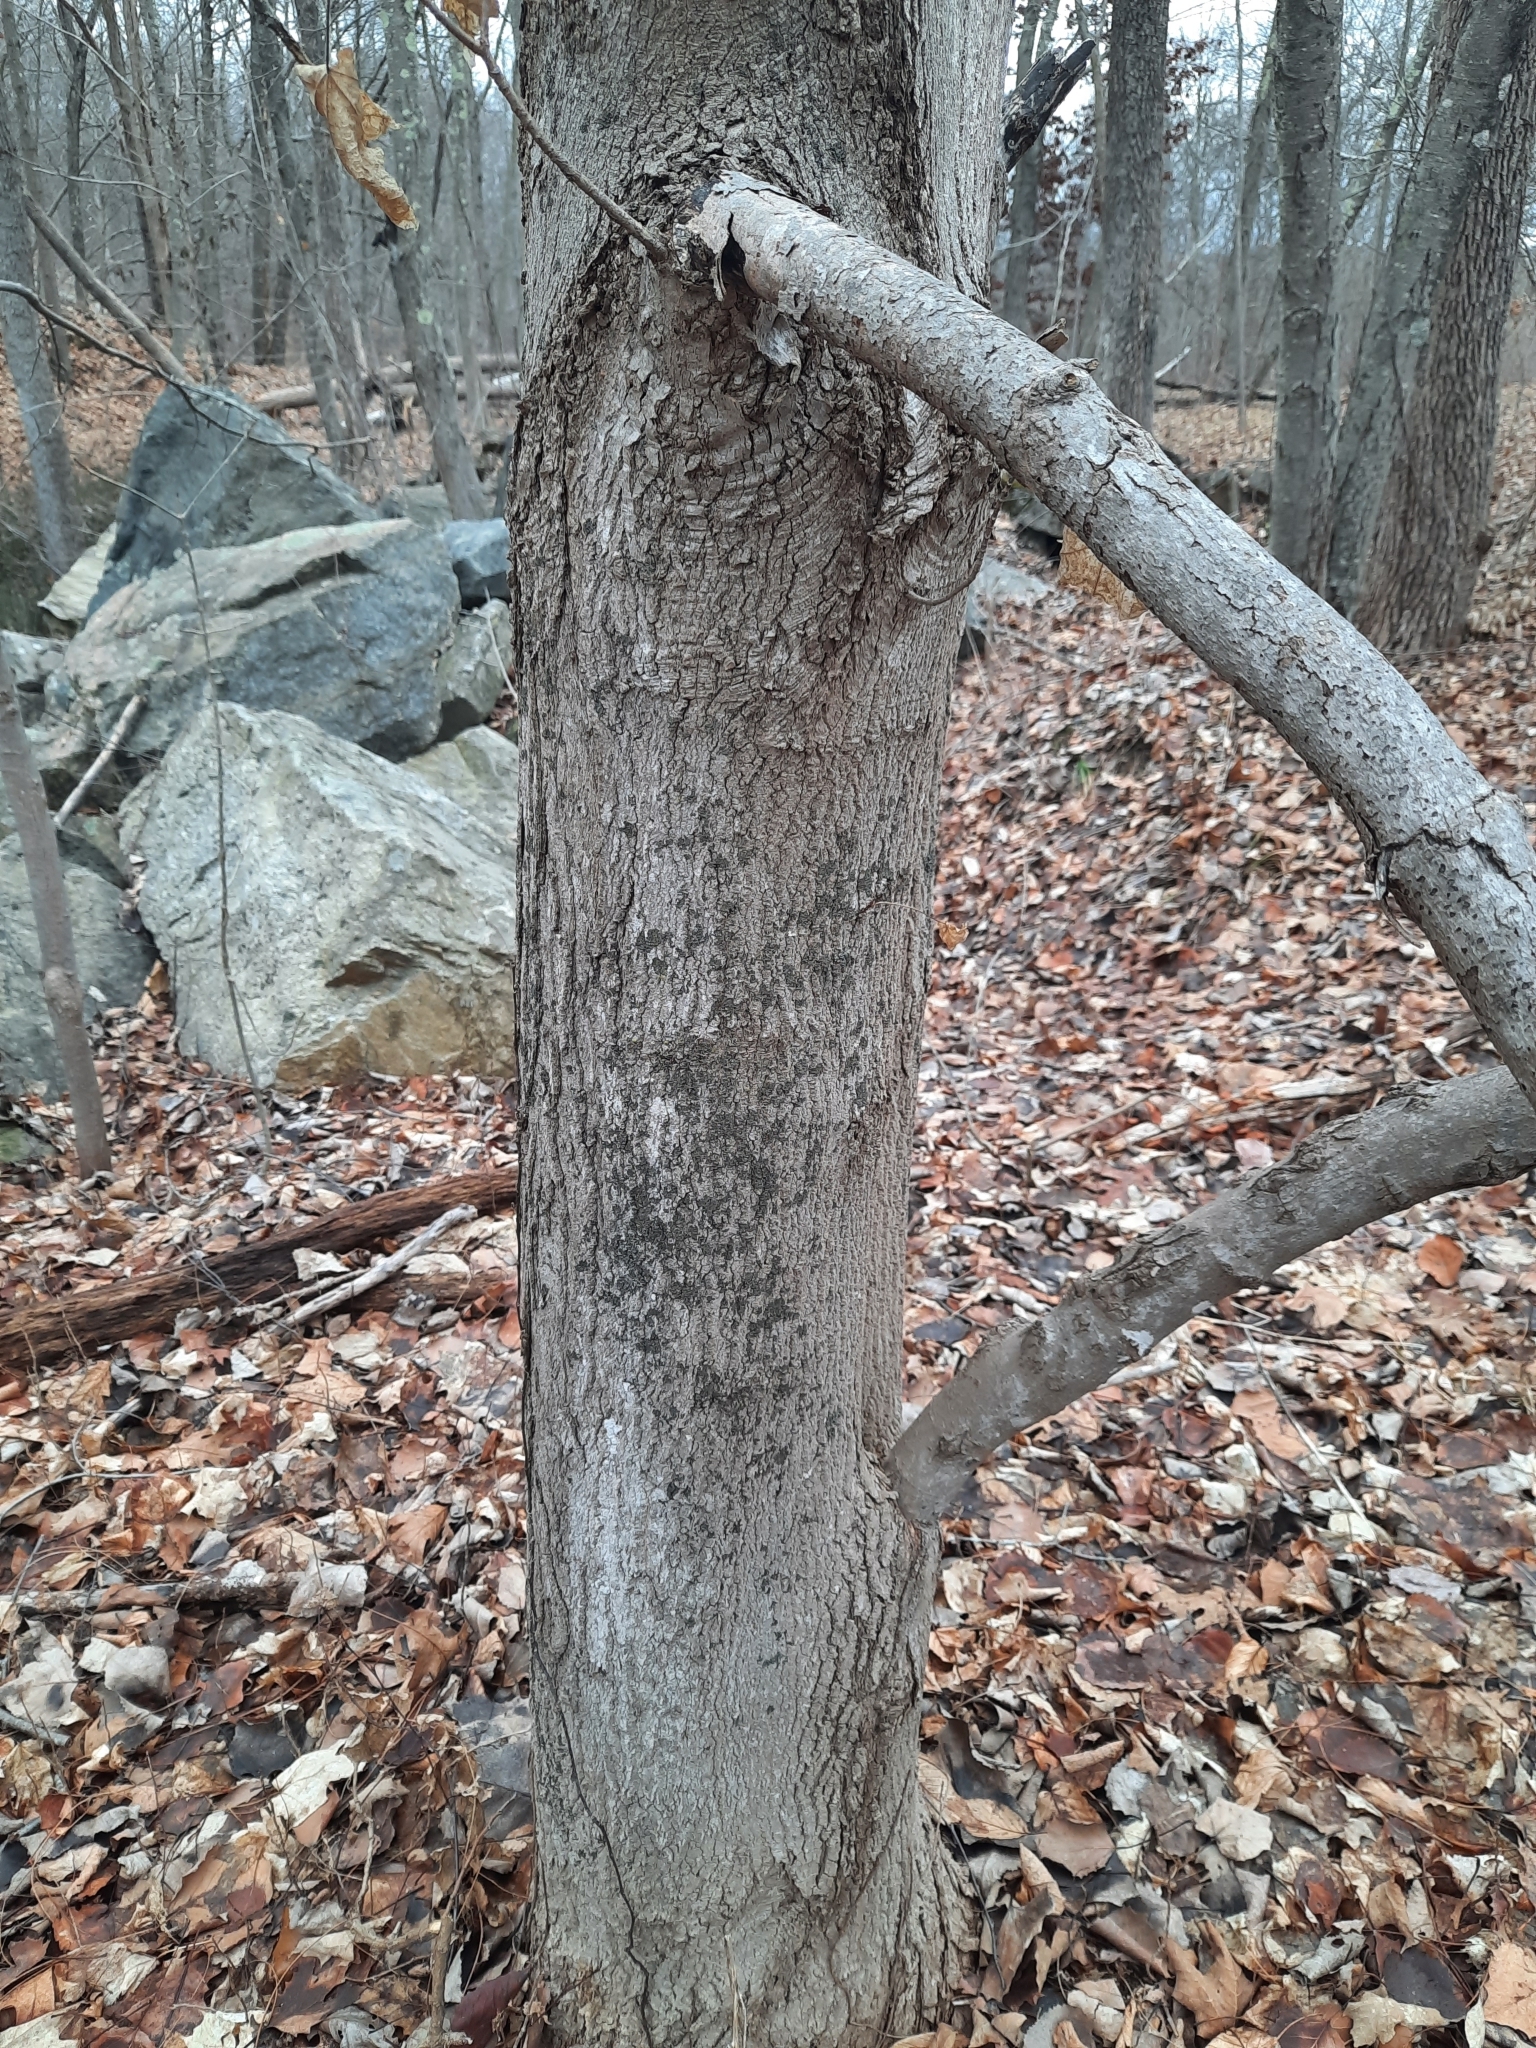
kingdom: Plantae
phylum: Tracheophyta
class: Magnoliopsida
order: Sapindales
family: Sapindaceae
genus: Acer
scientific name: Acer saccharum
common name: Sugar maple
